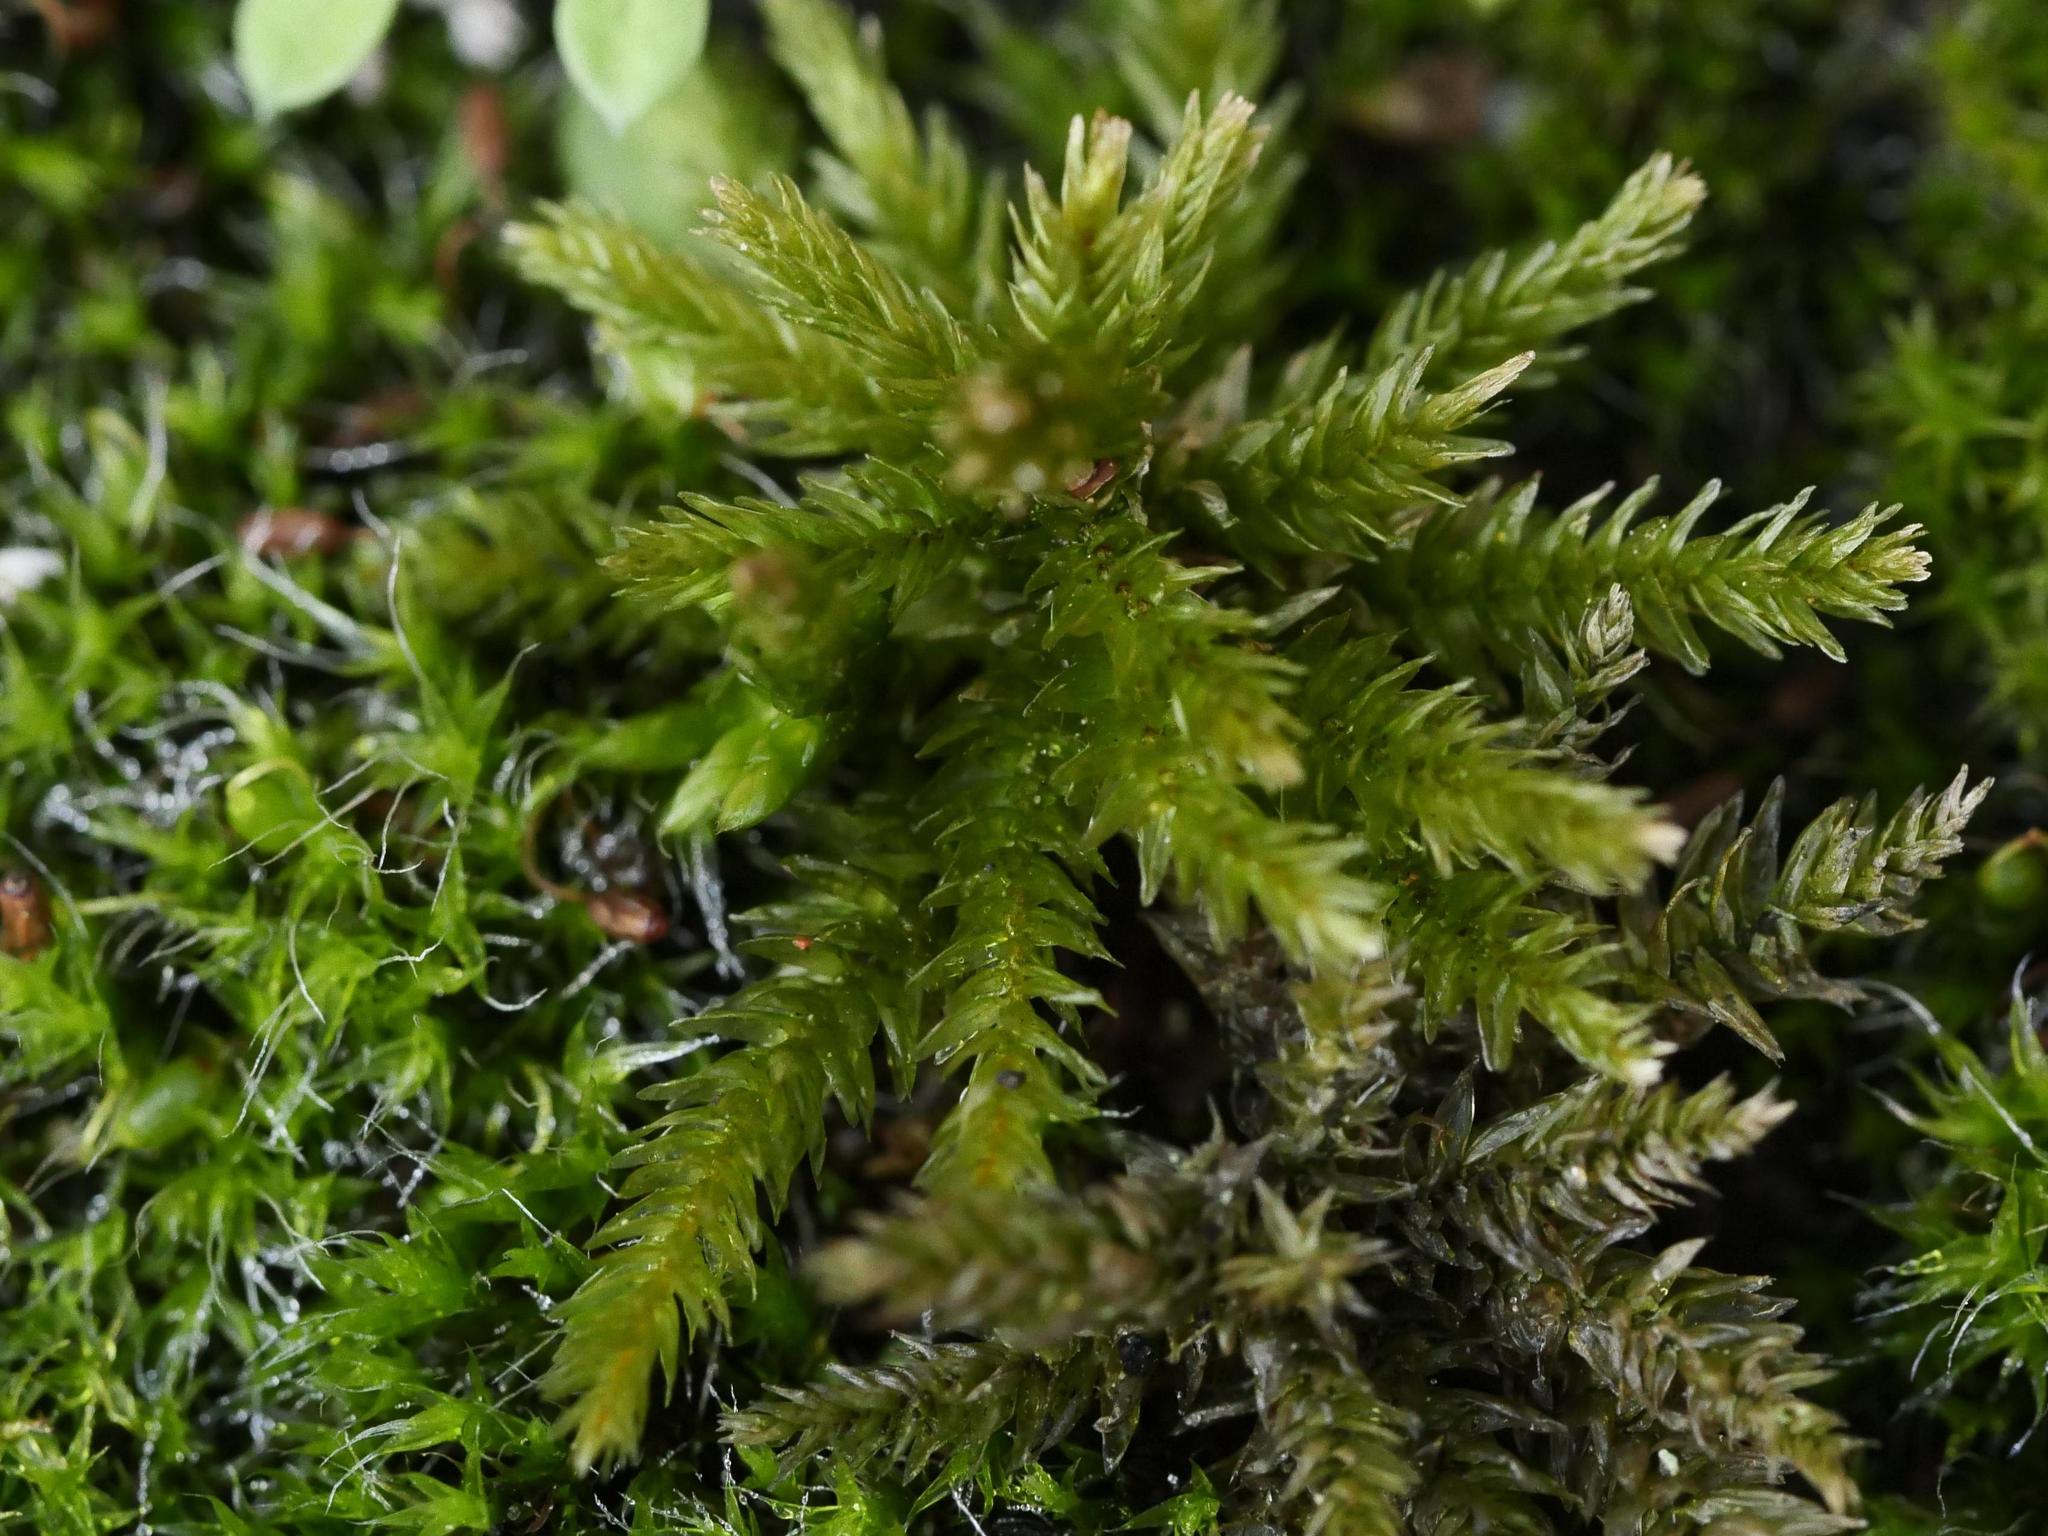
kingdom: Plantae
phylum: Bryophyta
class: Bryopsida
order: Hypnales
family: Climaciaceae
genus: Climacium
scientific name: Climacium dendroides
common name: Northern tree moss
